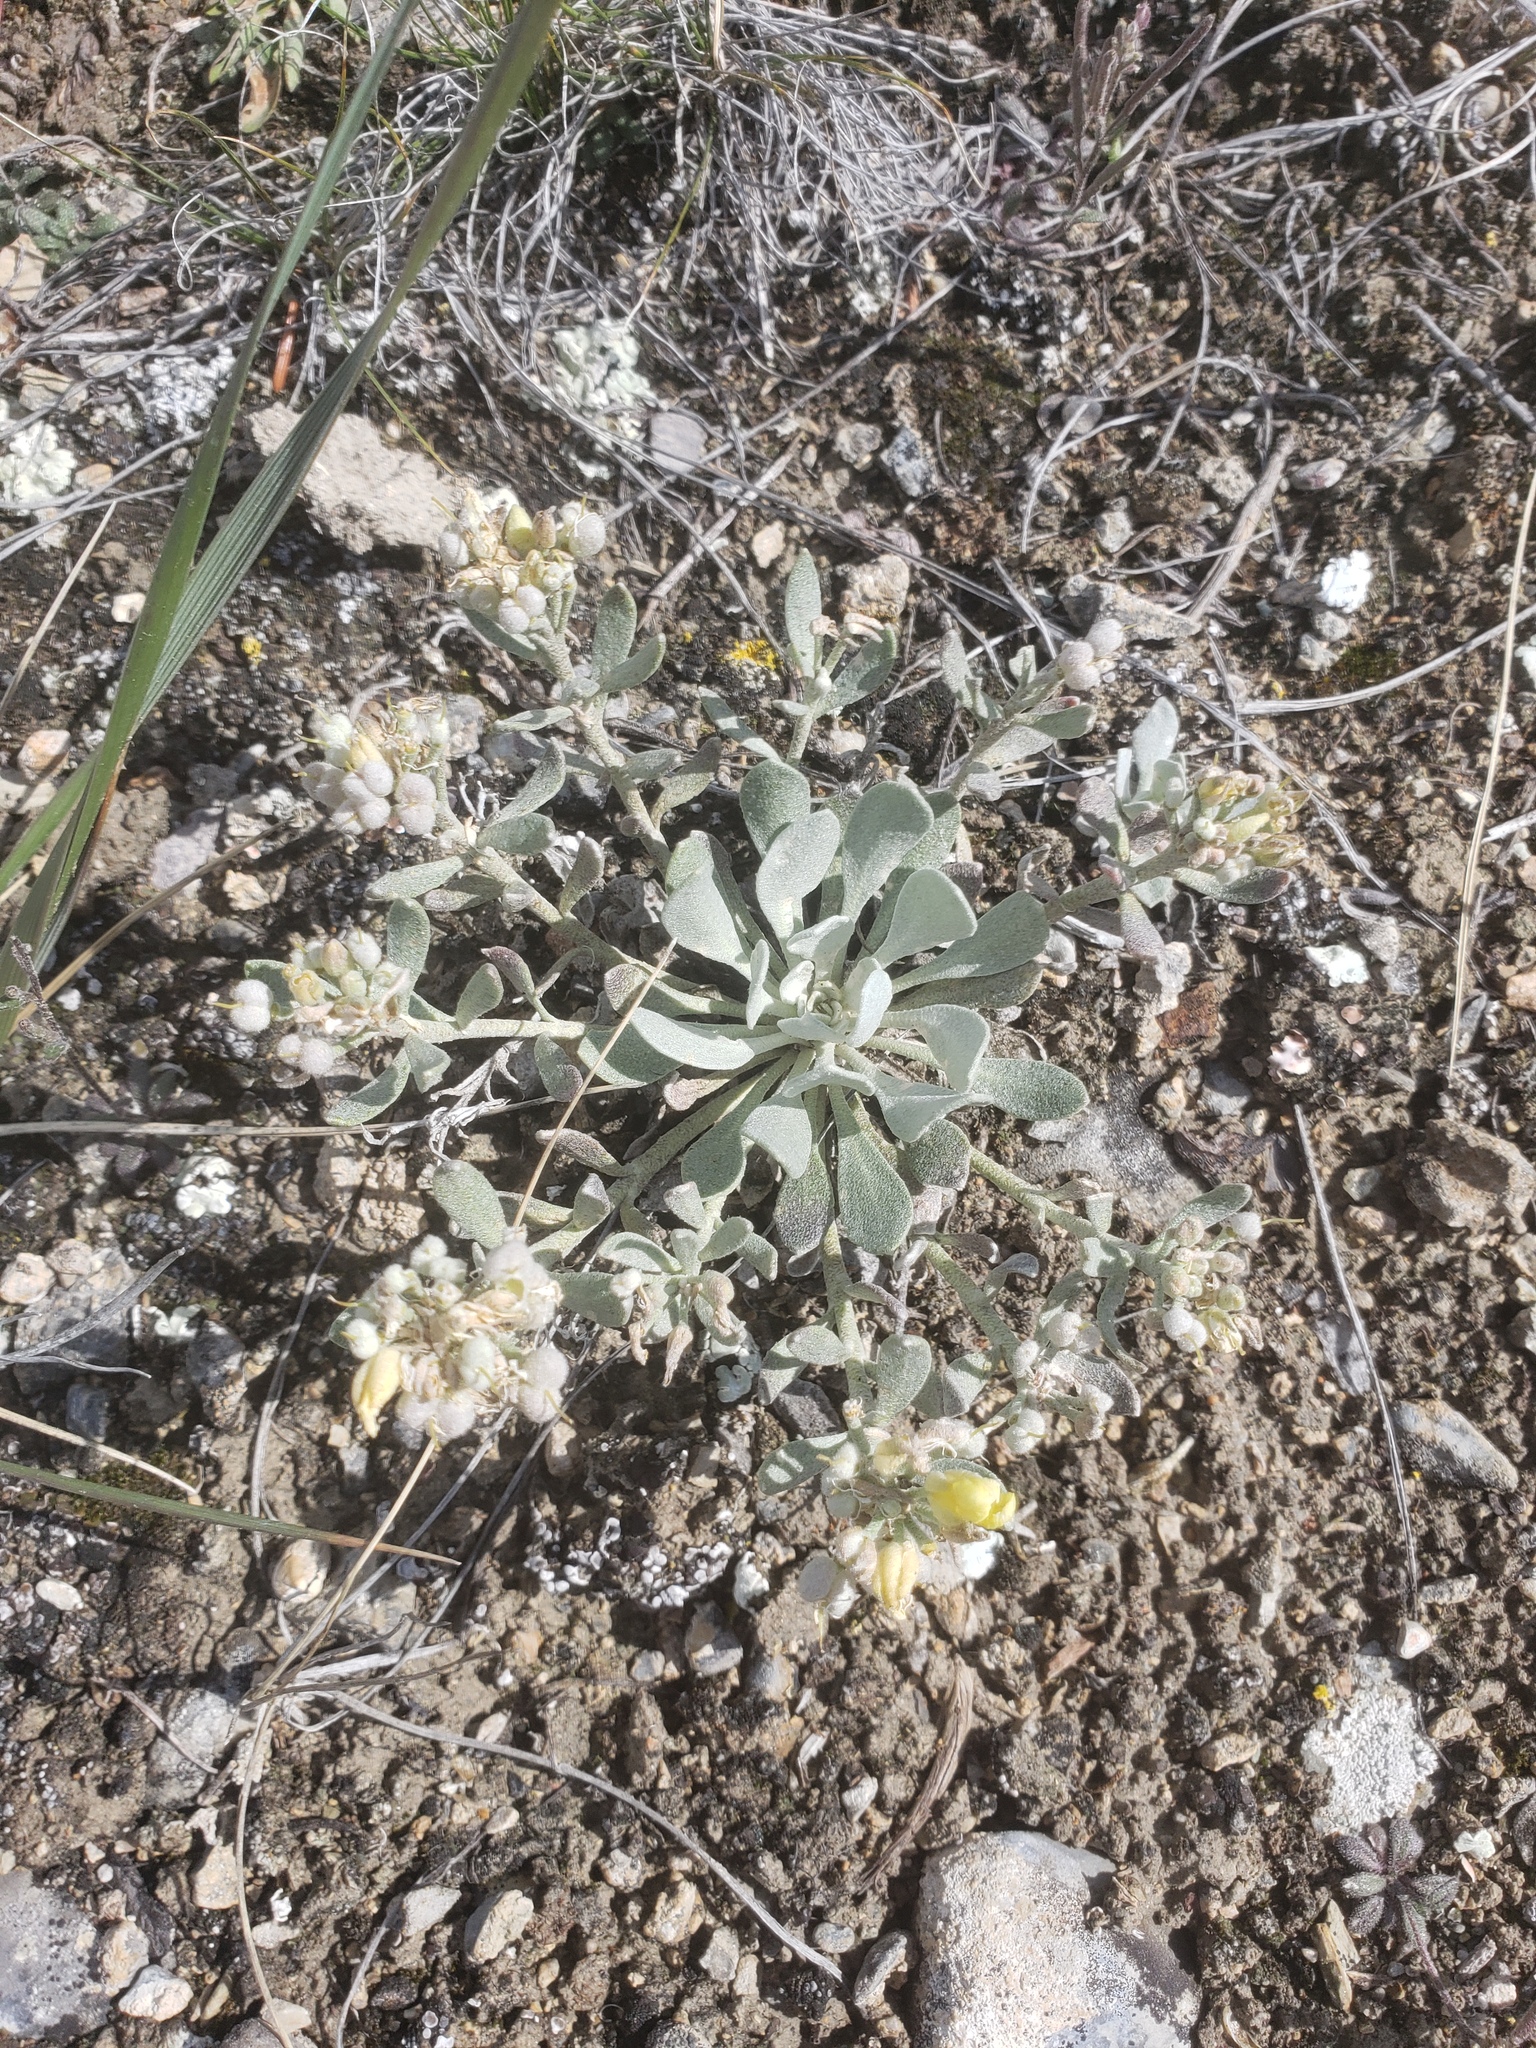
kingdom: Plantae
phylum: Tracheophyta
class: Magnoliopsida
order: Brassicales
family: Brassicaceae
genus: Physaria
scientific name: Physaria didymocarpa
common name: Common twinpod
